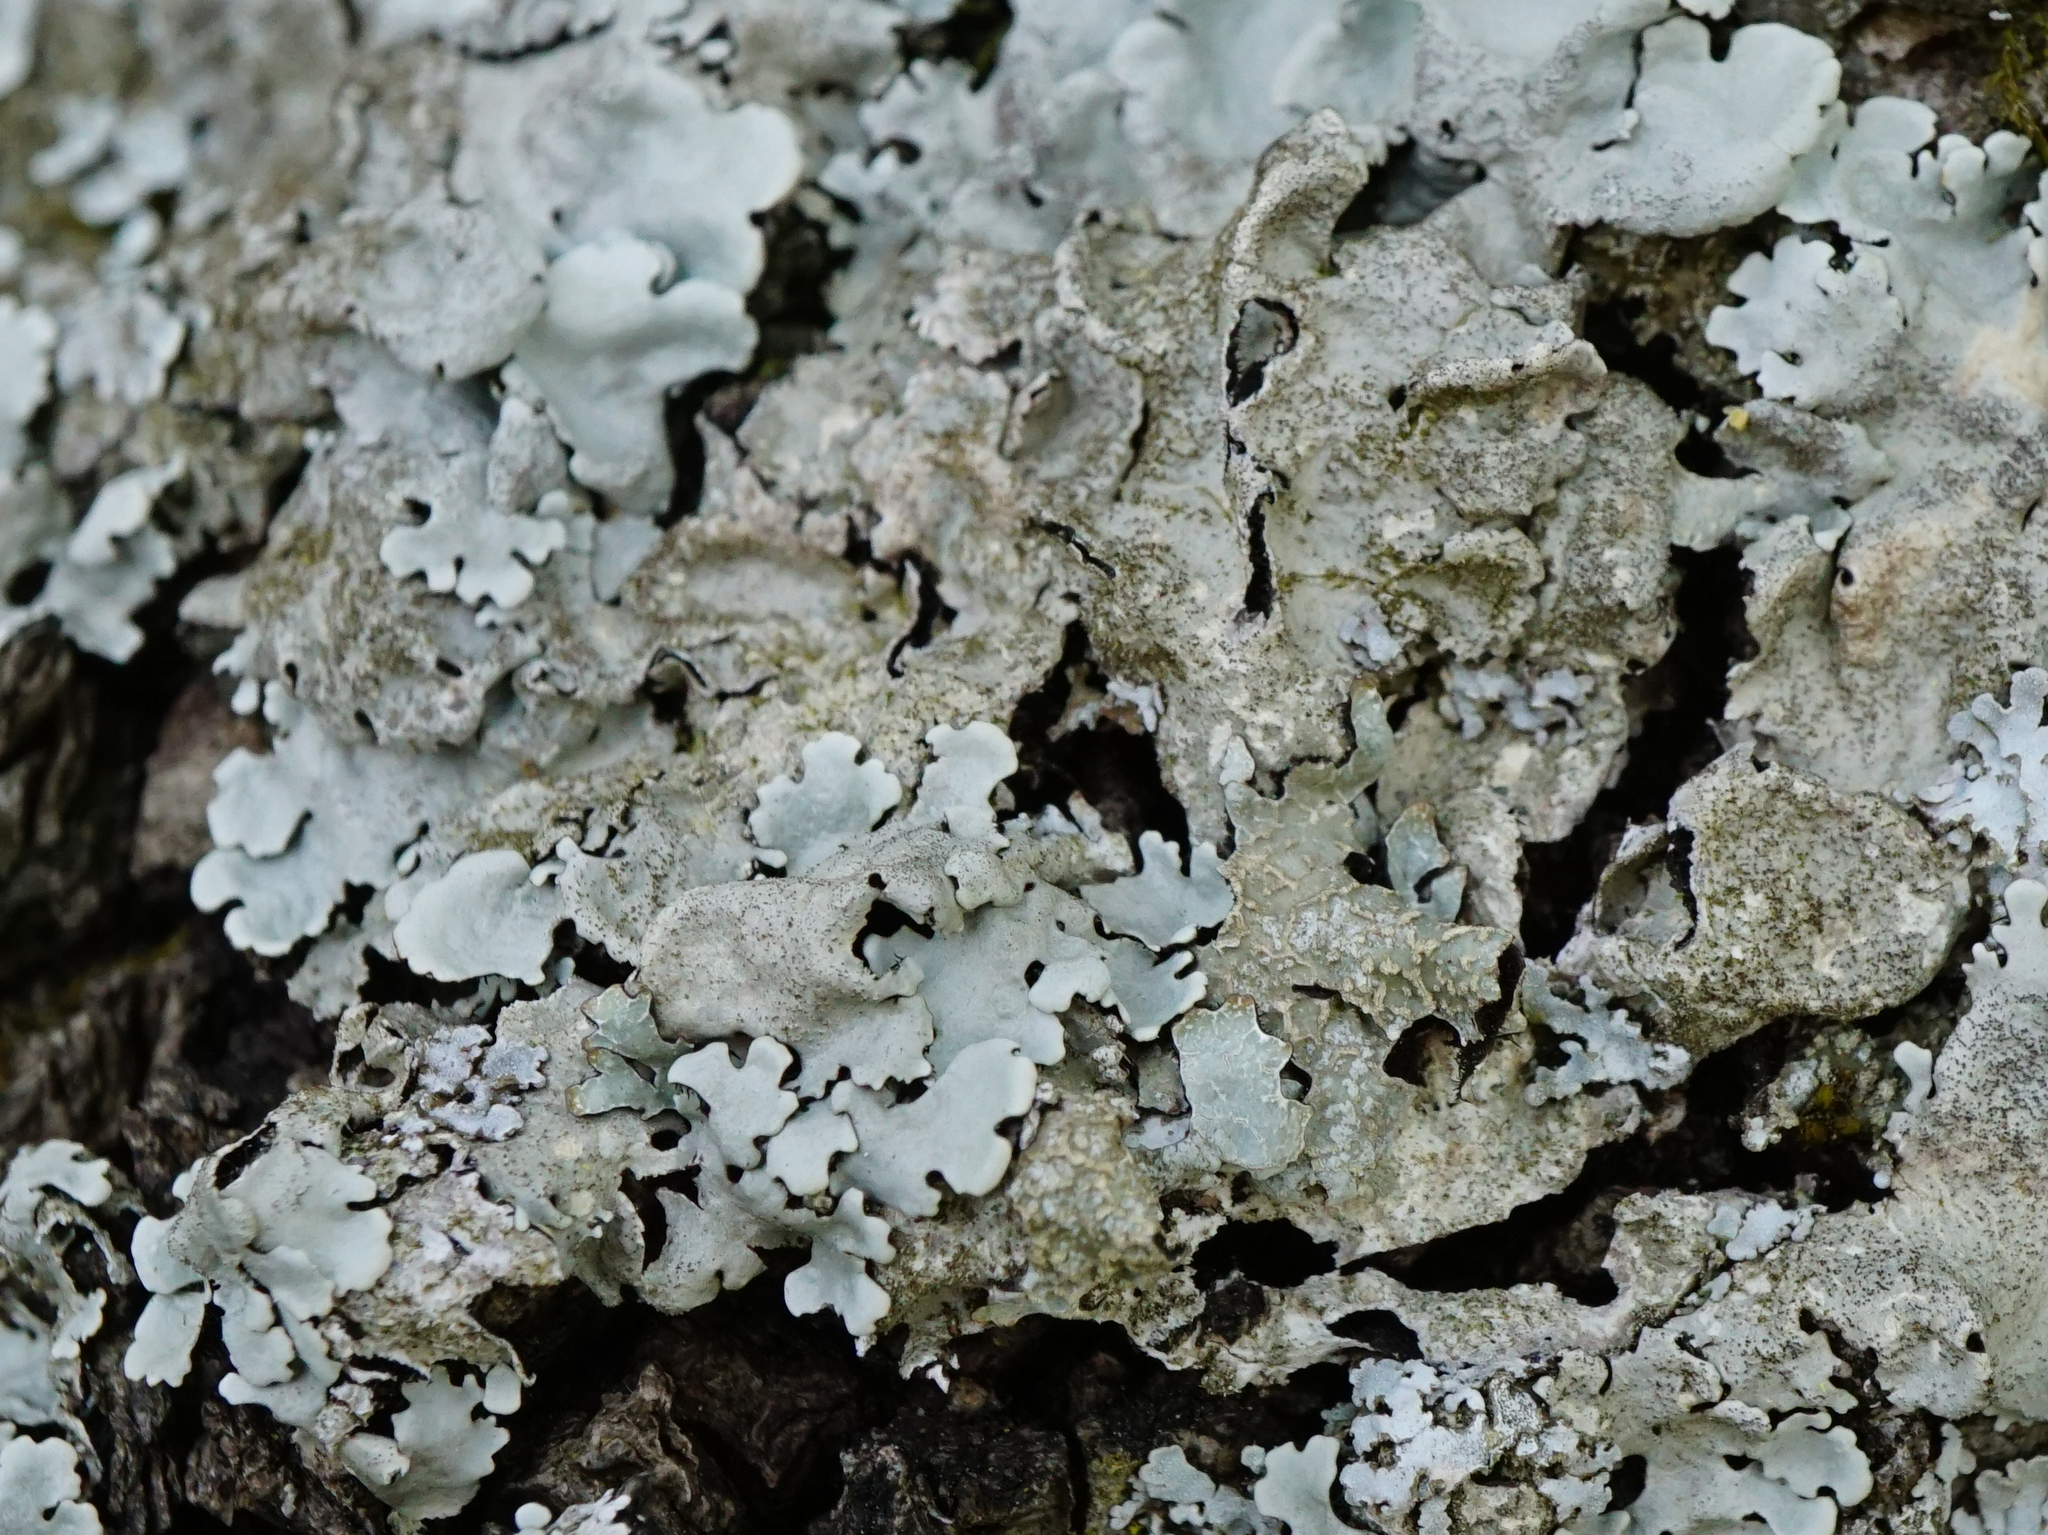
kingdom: Fungi
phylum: Ascomycota
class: Lecanoromycetes
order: Lecanorales
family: Parmeliaceae
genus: Parmelina
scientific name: Parmelina tiliacea
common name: Linden shield lichen
